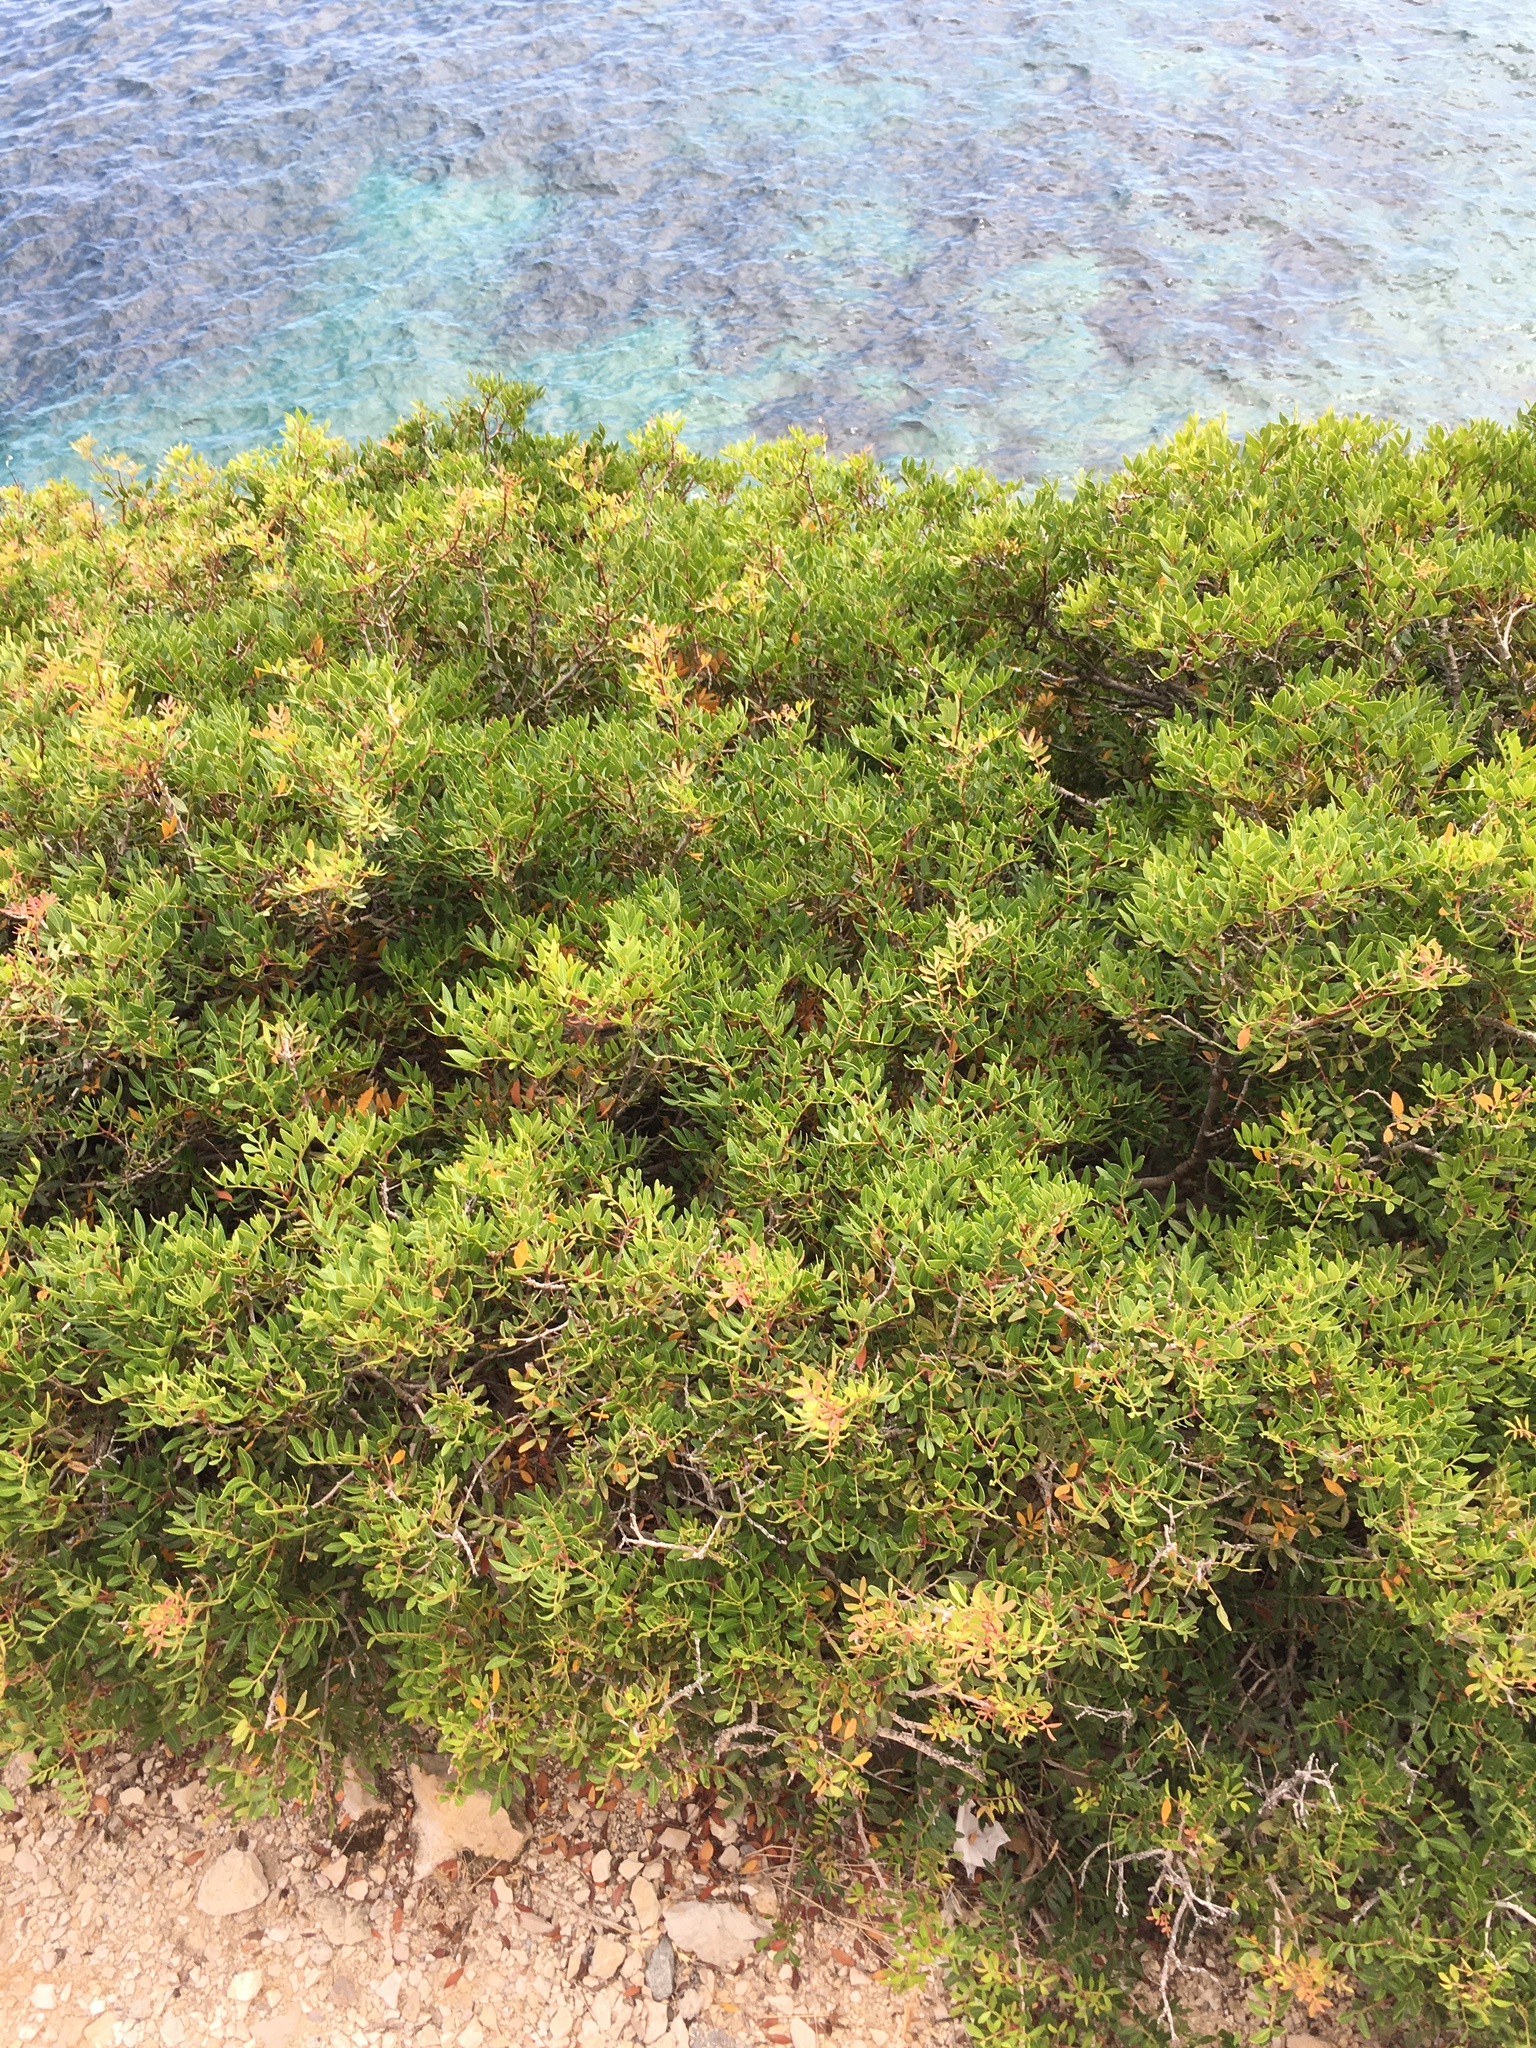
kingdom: Plantae
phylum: Tracheophyta
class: Magnoliopsida
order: Sapindales
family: Anacardiaceae
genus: Pistacia
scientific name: Pistacia lentiscus
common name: Lentisk
